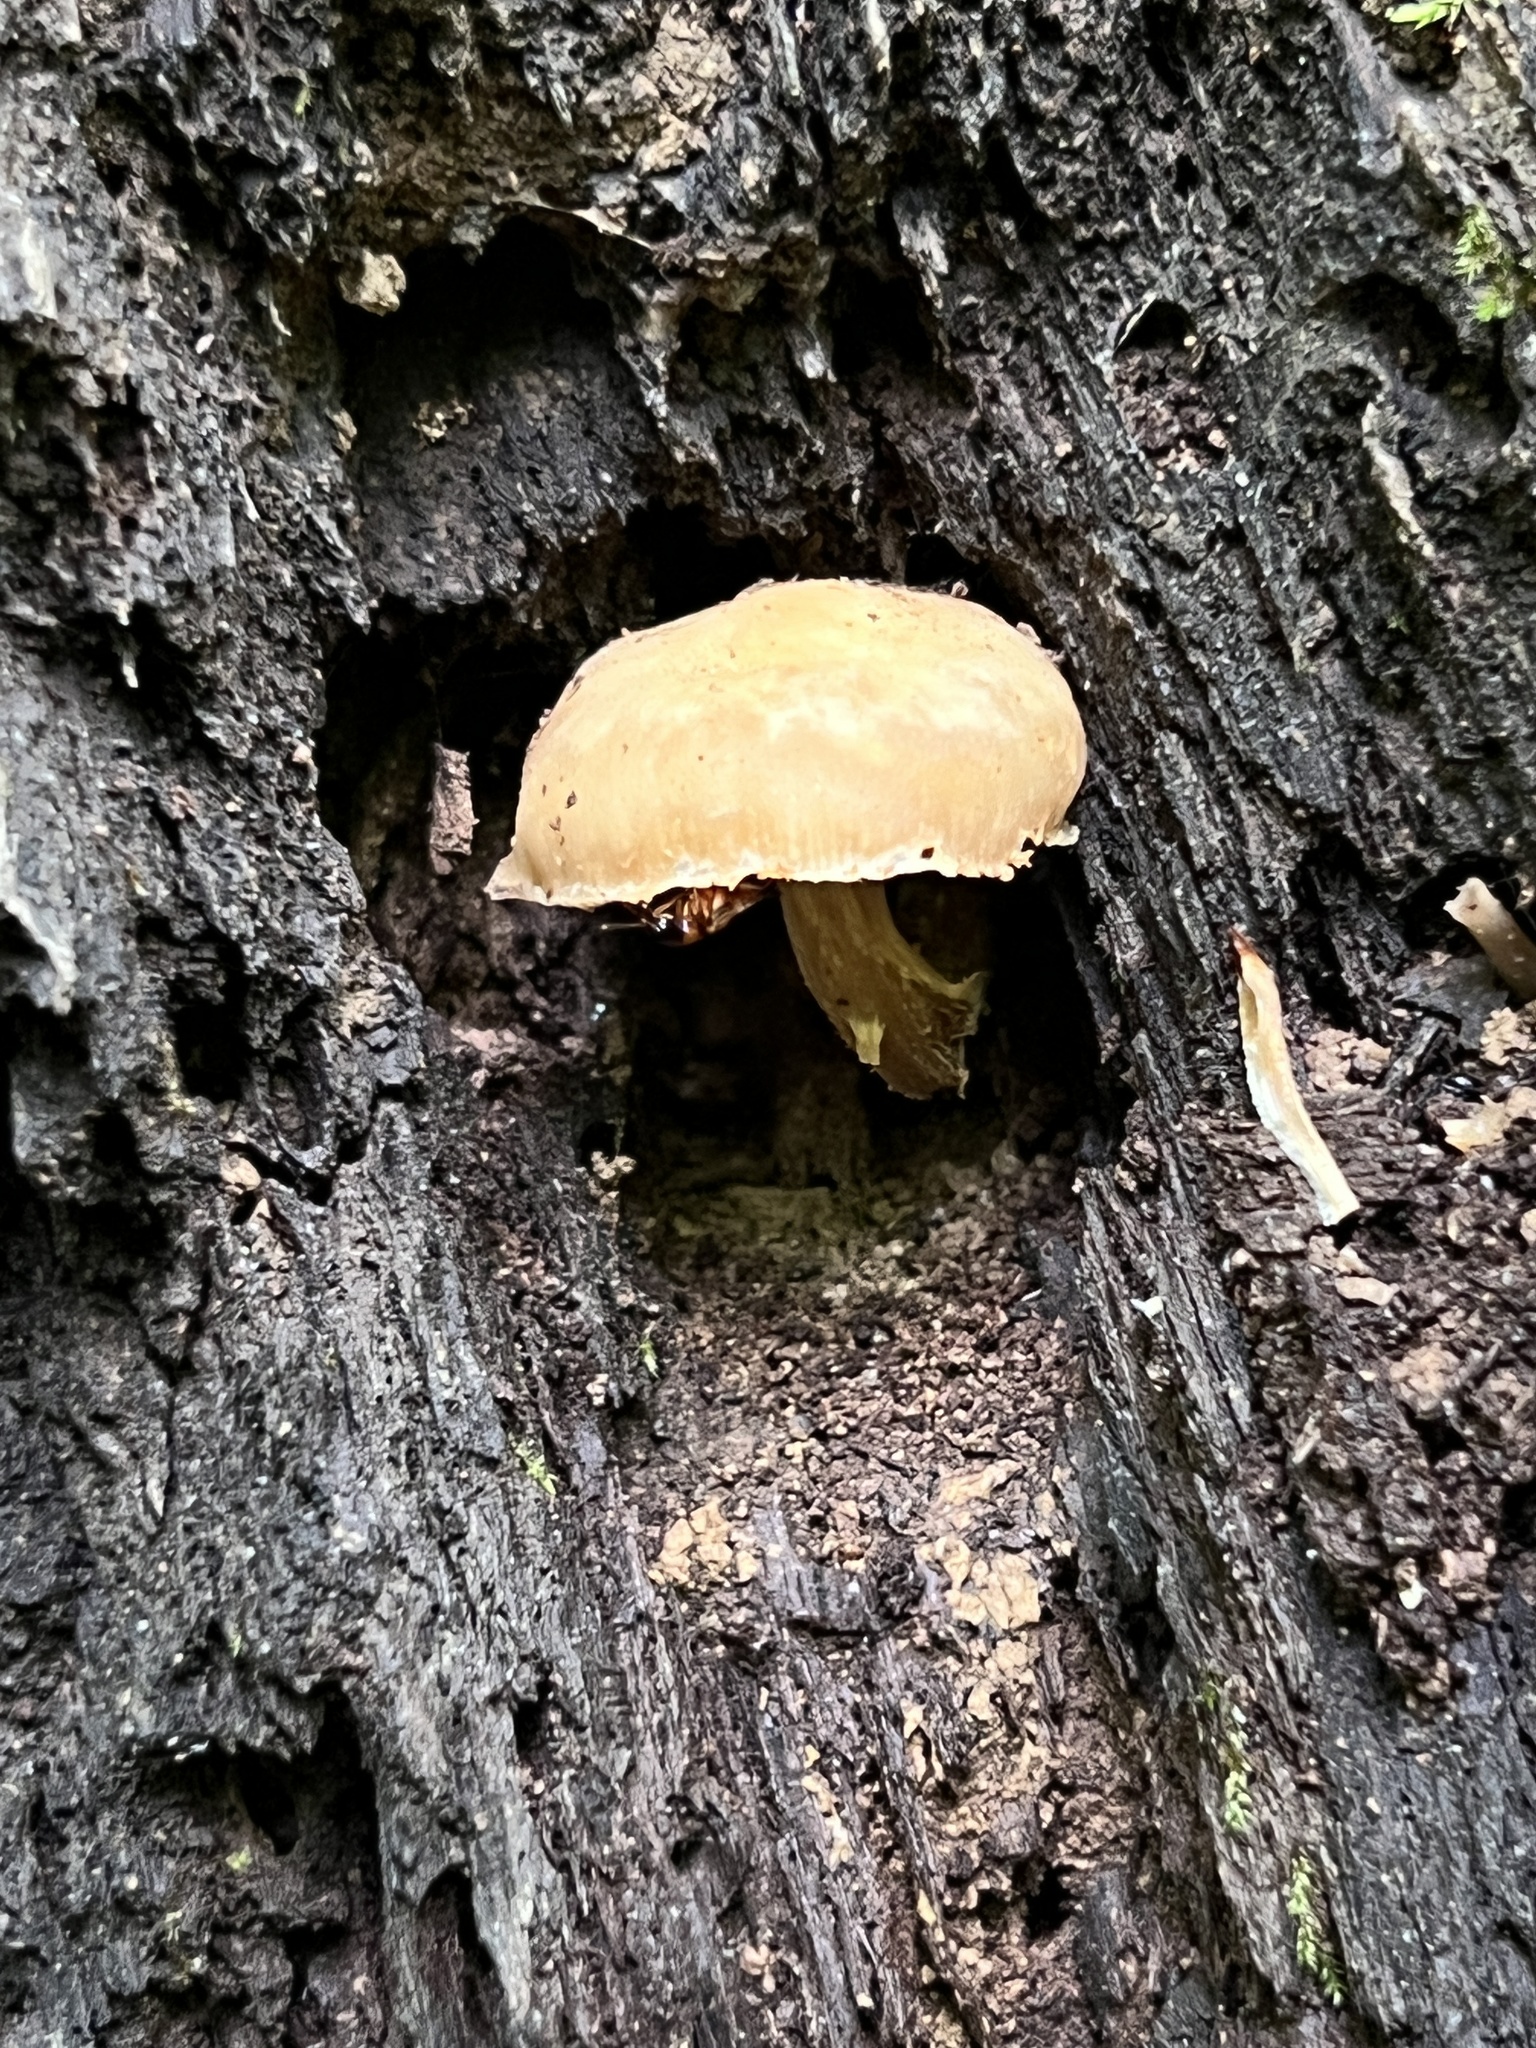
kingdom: Fungi
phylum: Basidiomycota
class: Agaricomycetes
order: Agaricales
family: Strophariaceae
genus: Kuehneromyces
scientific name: Kuehneromyces marginellus
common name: Sheathed woodtuft
